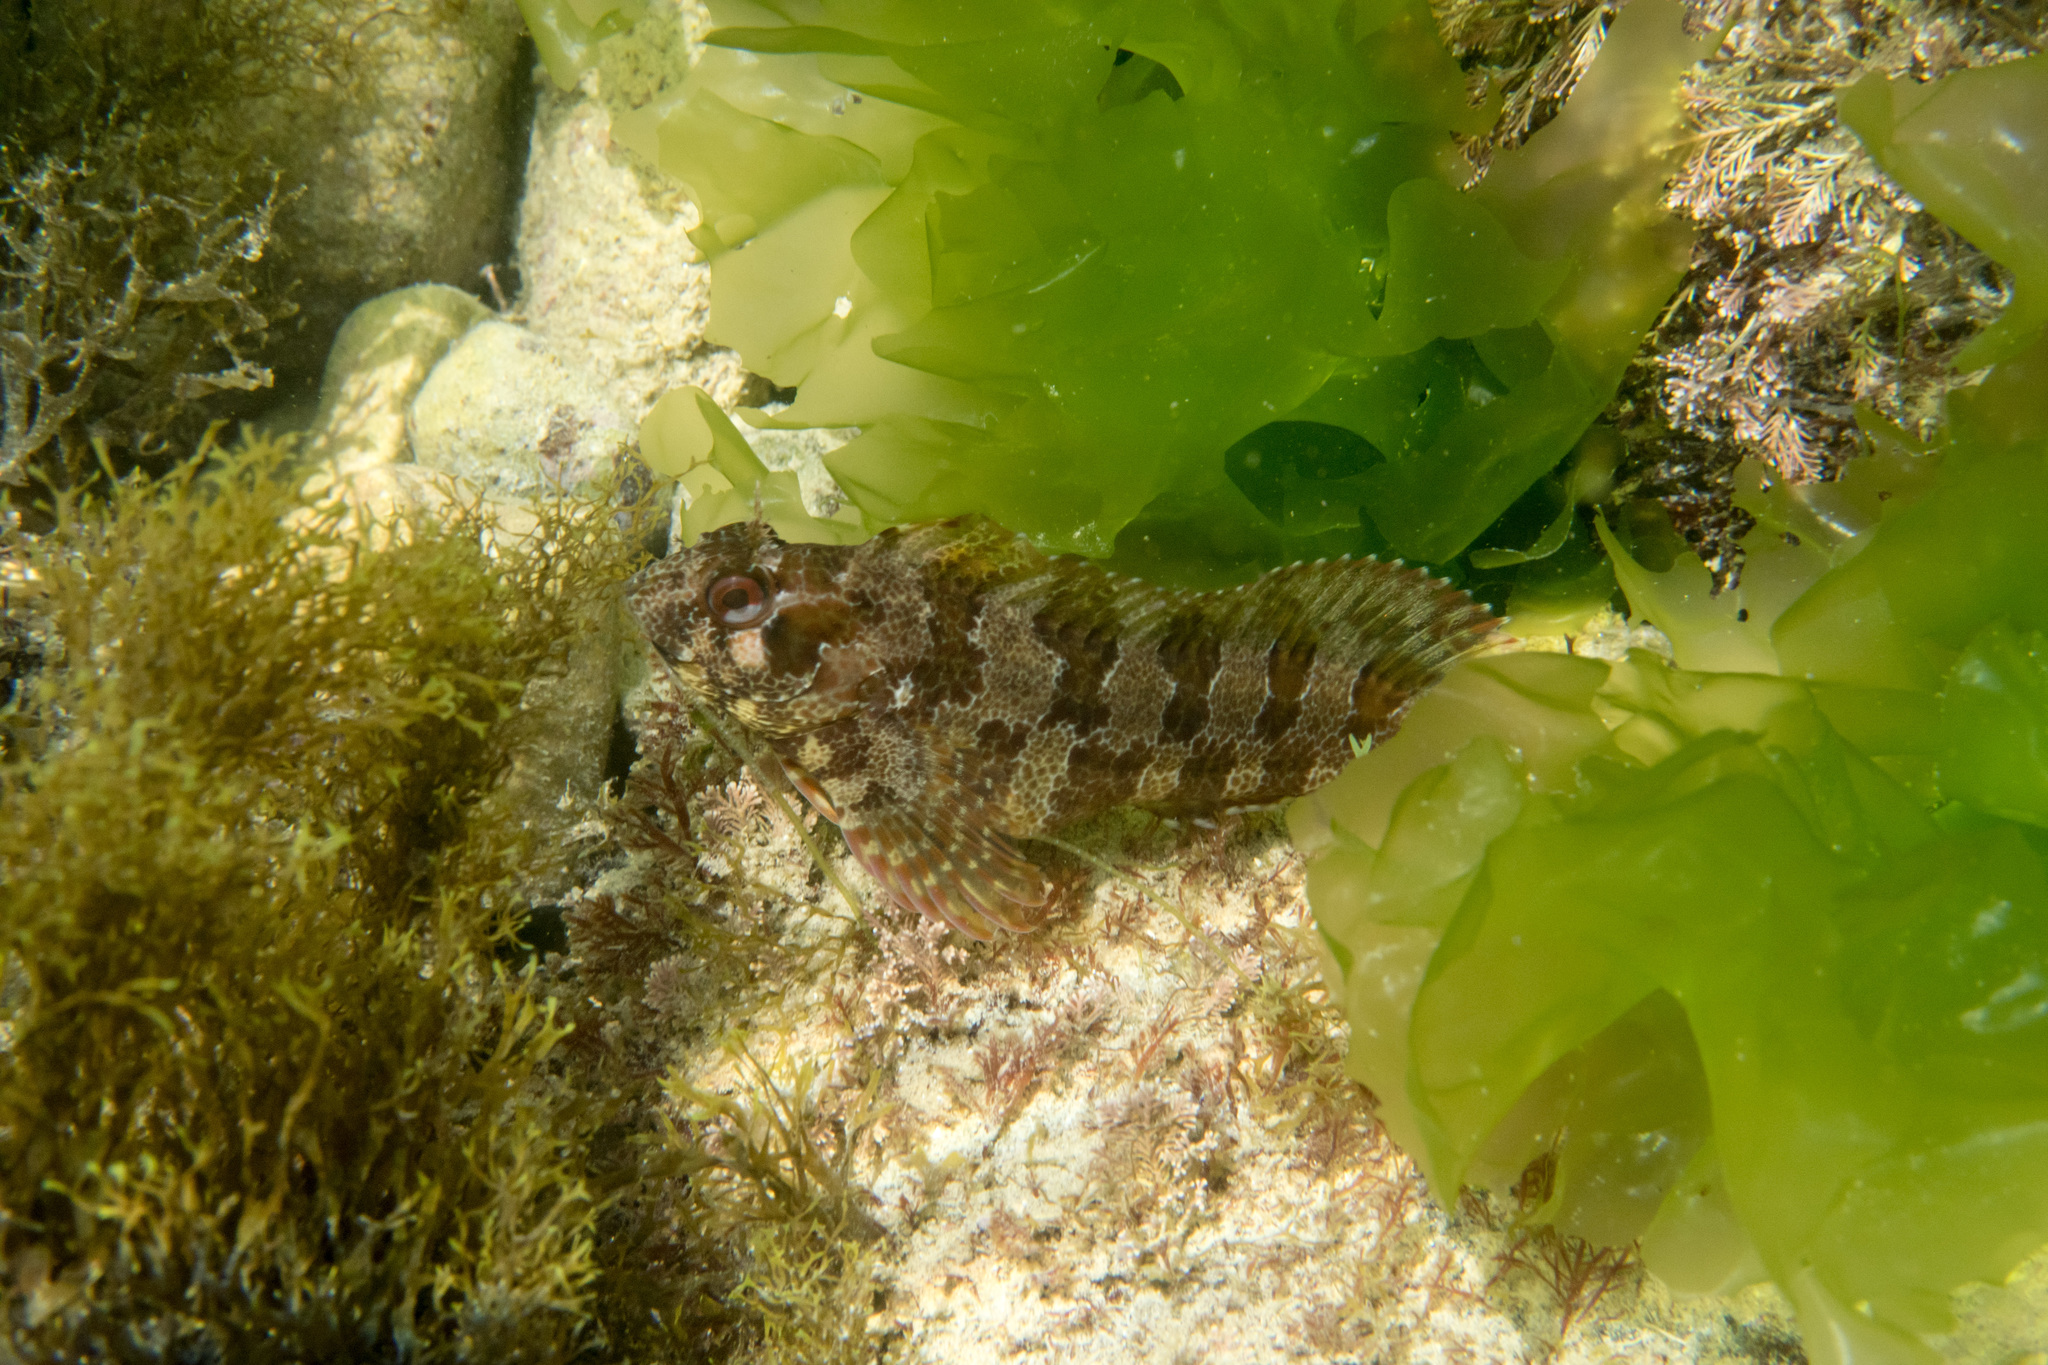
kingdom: Animalia
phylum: Chordata
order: Perciformes
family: Blenniidae
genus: Parablennius
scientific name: Parablennius gattorugine
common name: Tompot blenny
